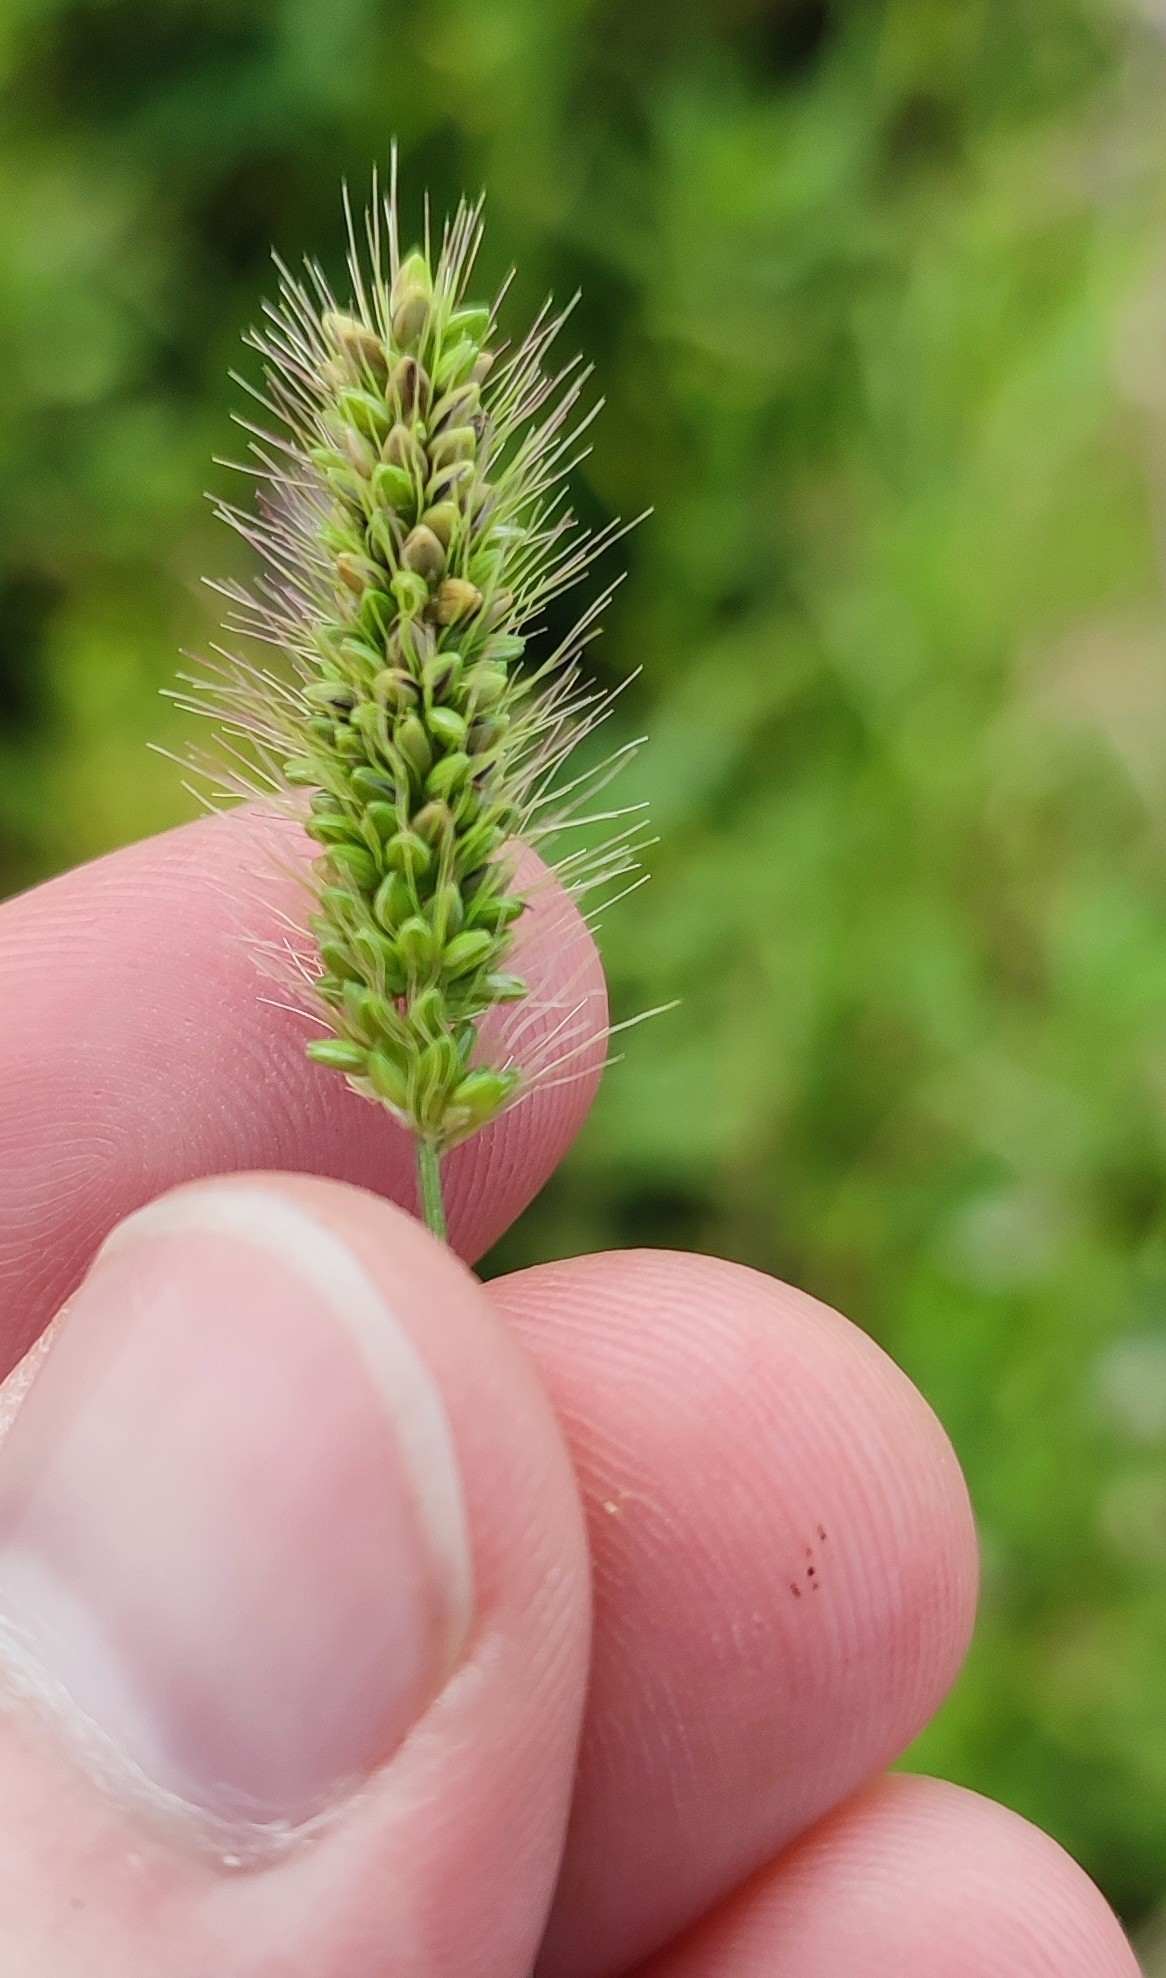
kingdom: Plantae
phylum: Tracheophyta
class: Liliopsida
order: Poales
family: Poaceae
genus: Setaria
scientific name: Setaria viridis
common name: Green bristlegrass
